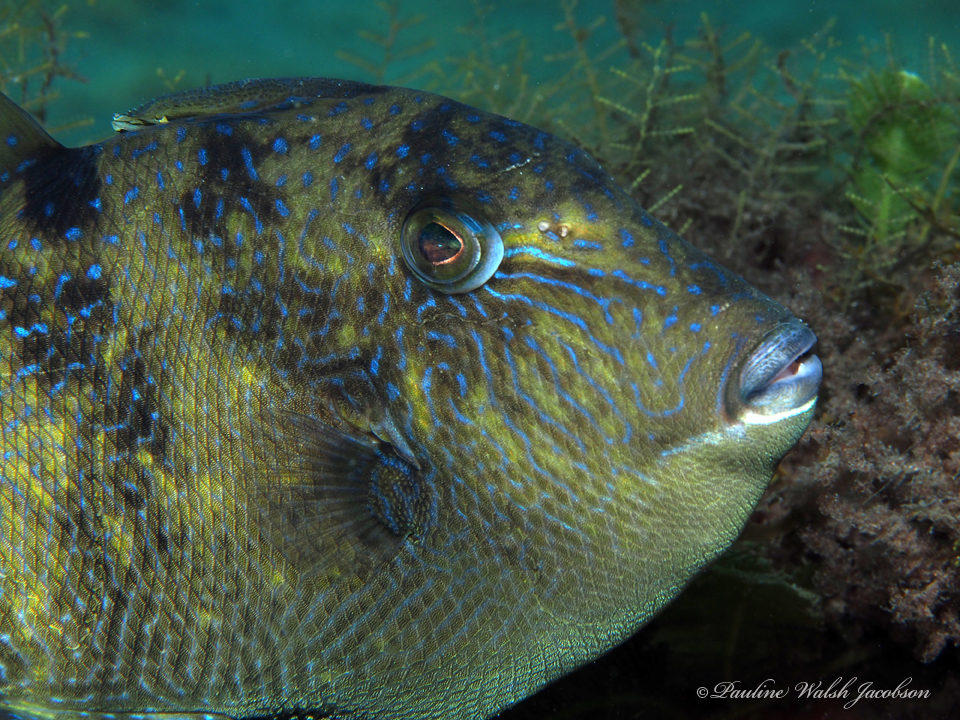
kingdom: Animalia
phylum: Chordata
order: Tetraodontiformes
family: Balistidae
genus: Balistes
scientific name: Balistes capriscus
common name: Grey triggerfish
